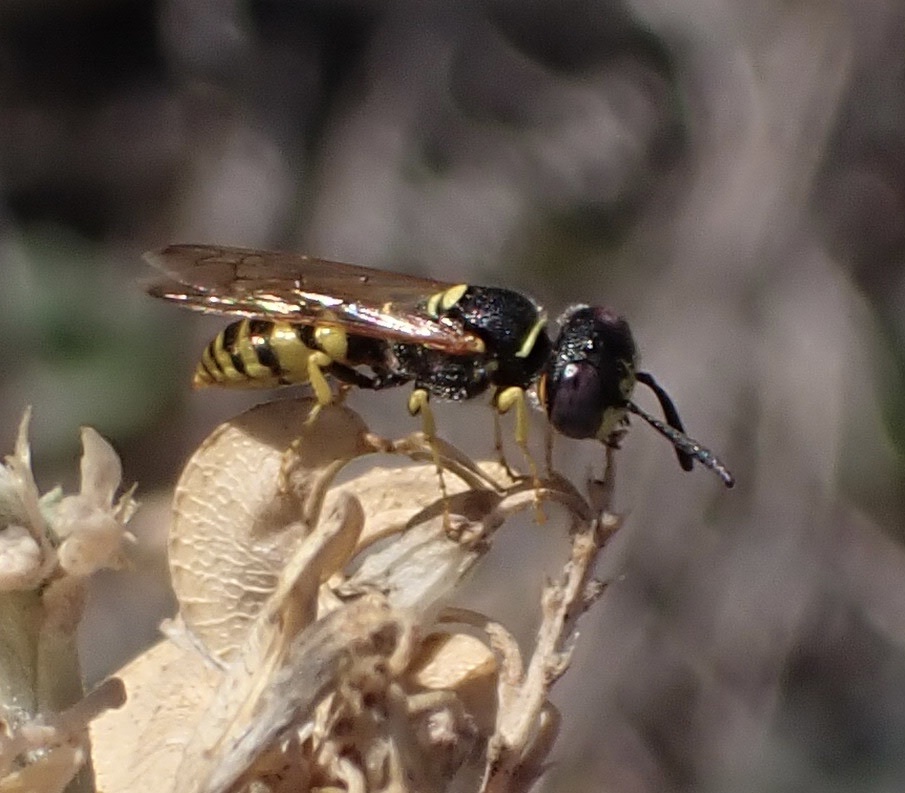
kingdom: Animalia
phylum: Arthropoda
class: Insecta
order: Hymenoptera
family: Crabronidae
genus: Philanthus
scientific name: Philanthus triangulum
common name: Bee wolf
